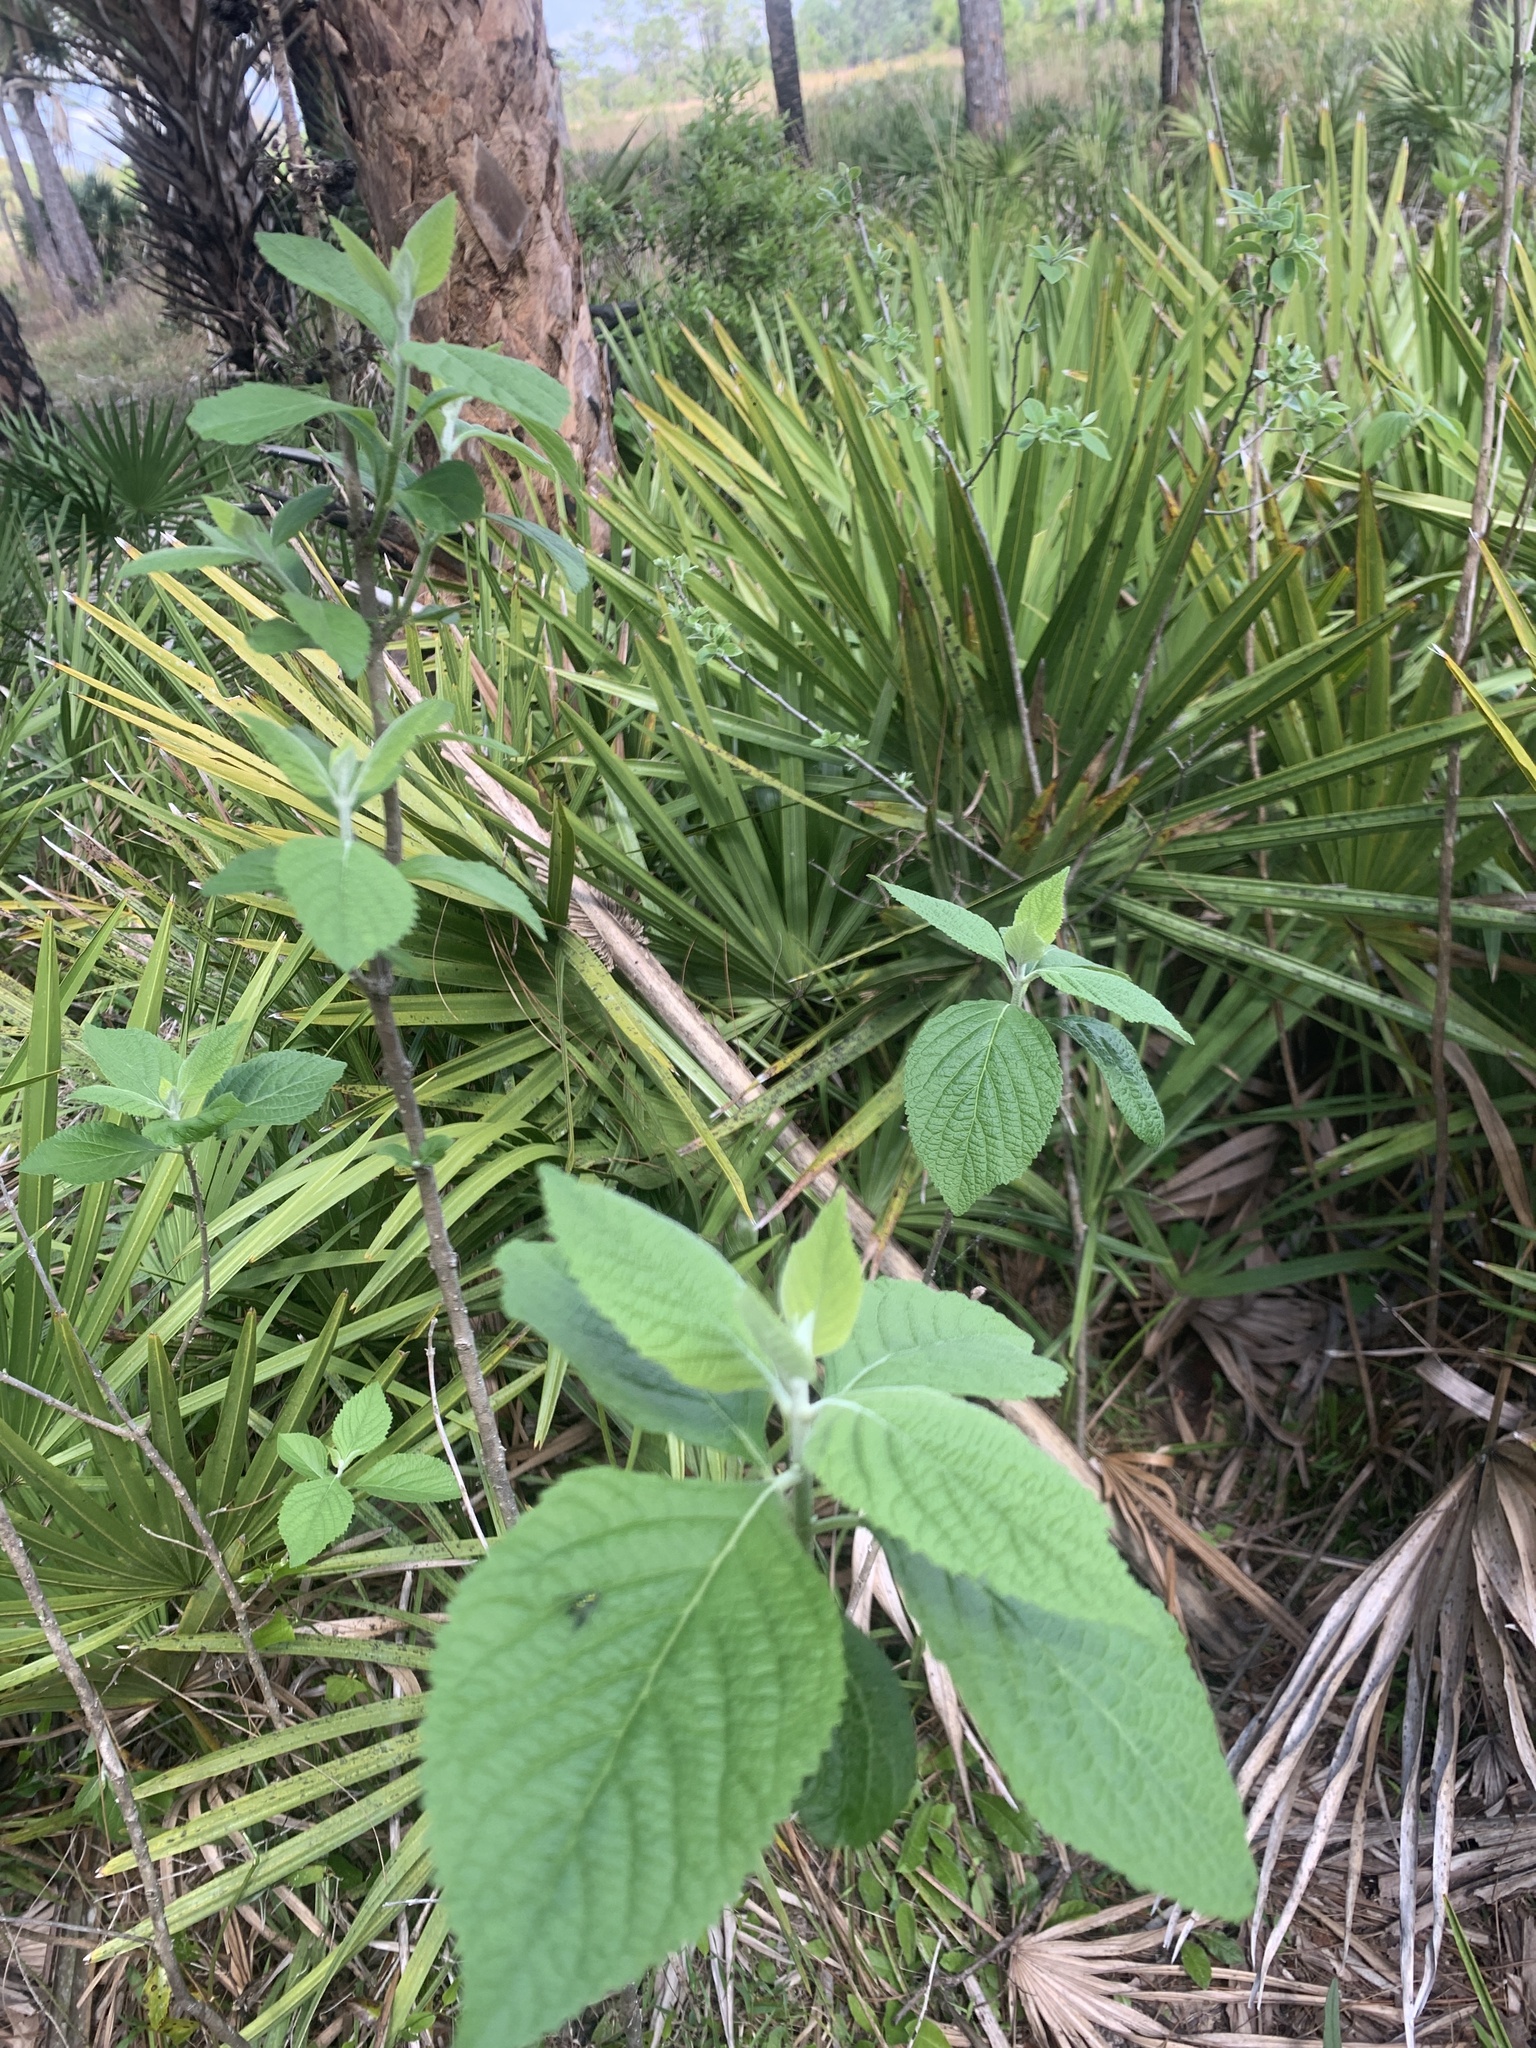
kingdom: Plantae
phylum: Tracheophyta
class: Magnoliopsida
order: Lamiales
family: Lamiaceae
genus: Callicarpa
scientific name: Callicarpa americana
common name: American beautyberry
